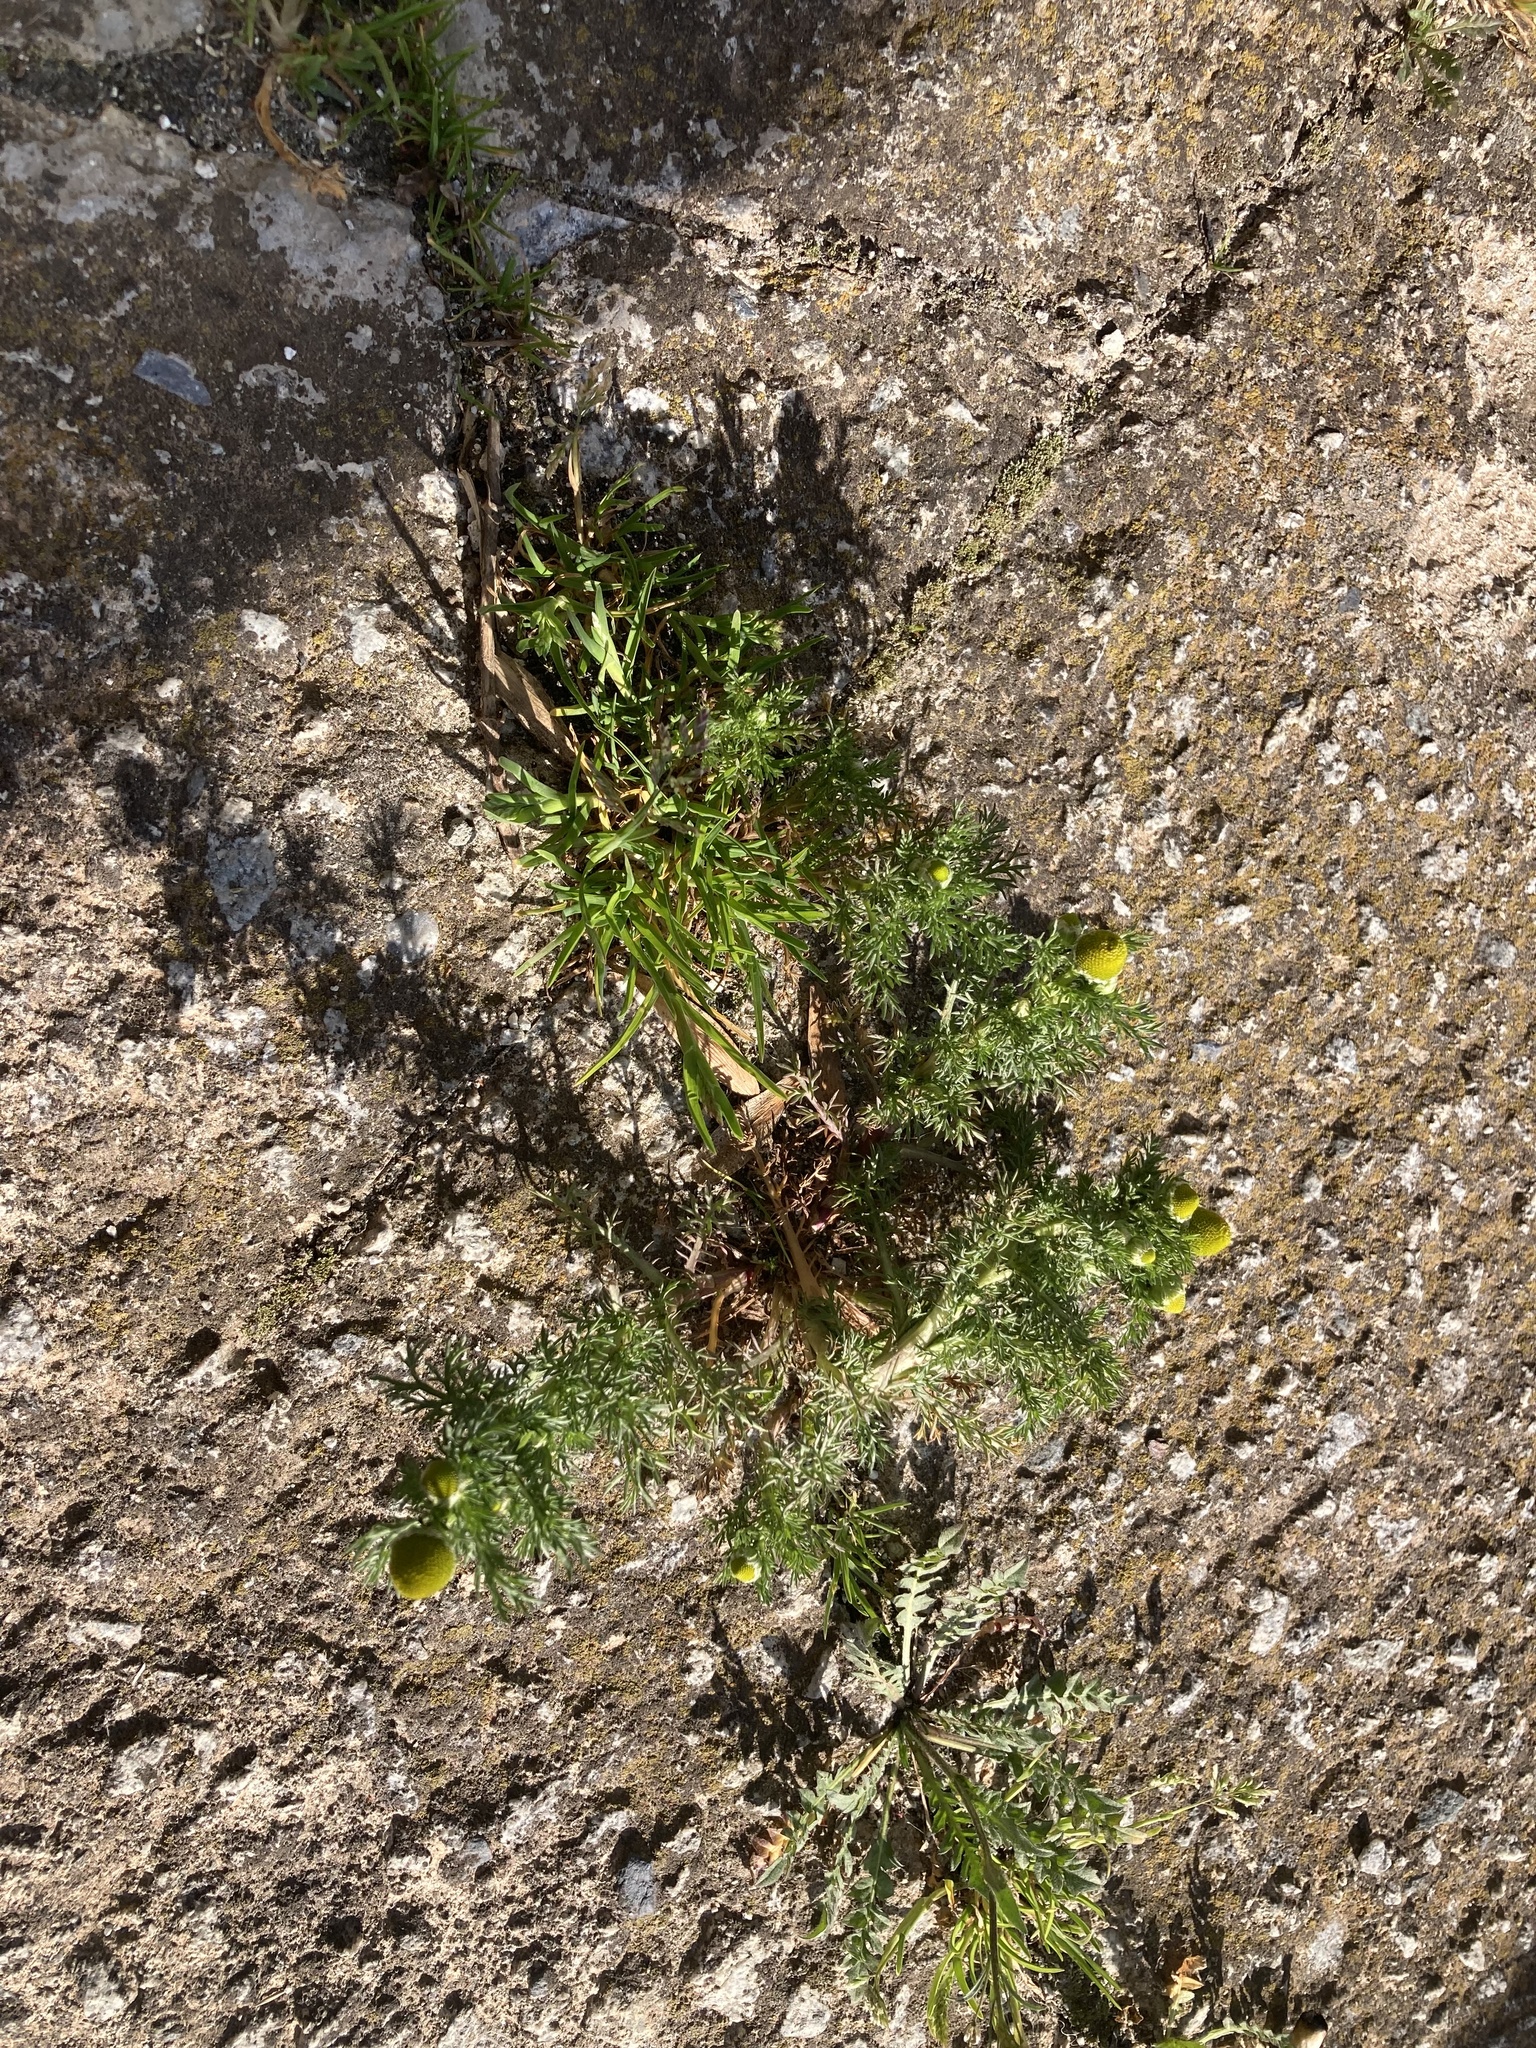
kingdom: Plantae
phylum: Tracheophyta
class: Magnoliopsida
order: Asterales
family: Asteraceae
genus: Matricaria
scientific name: Matricaria discoidea
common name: Disc mayweed
